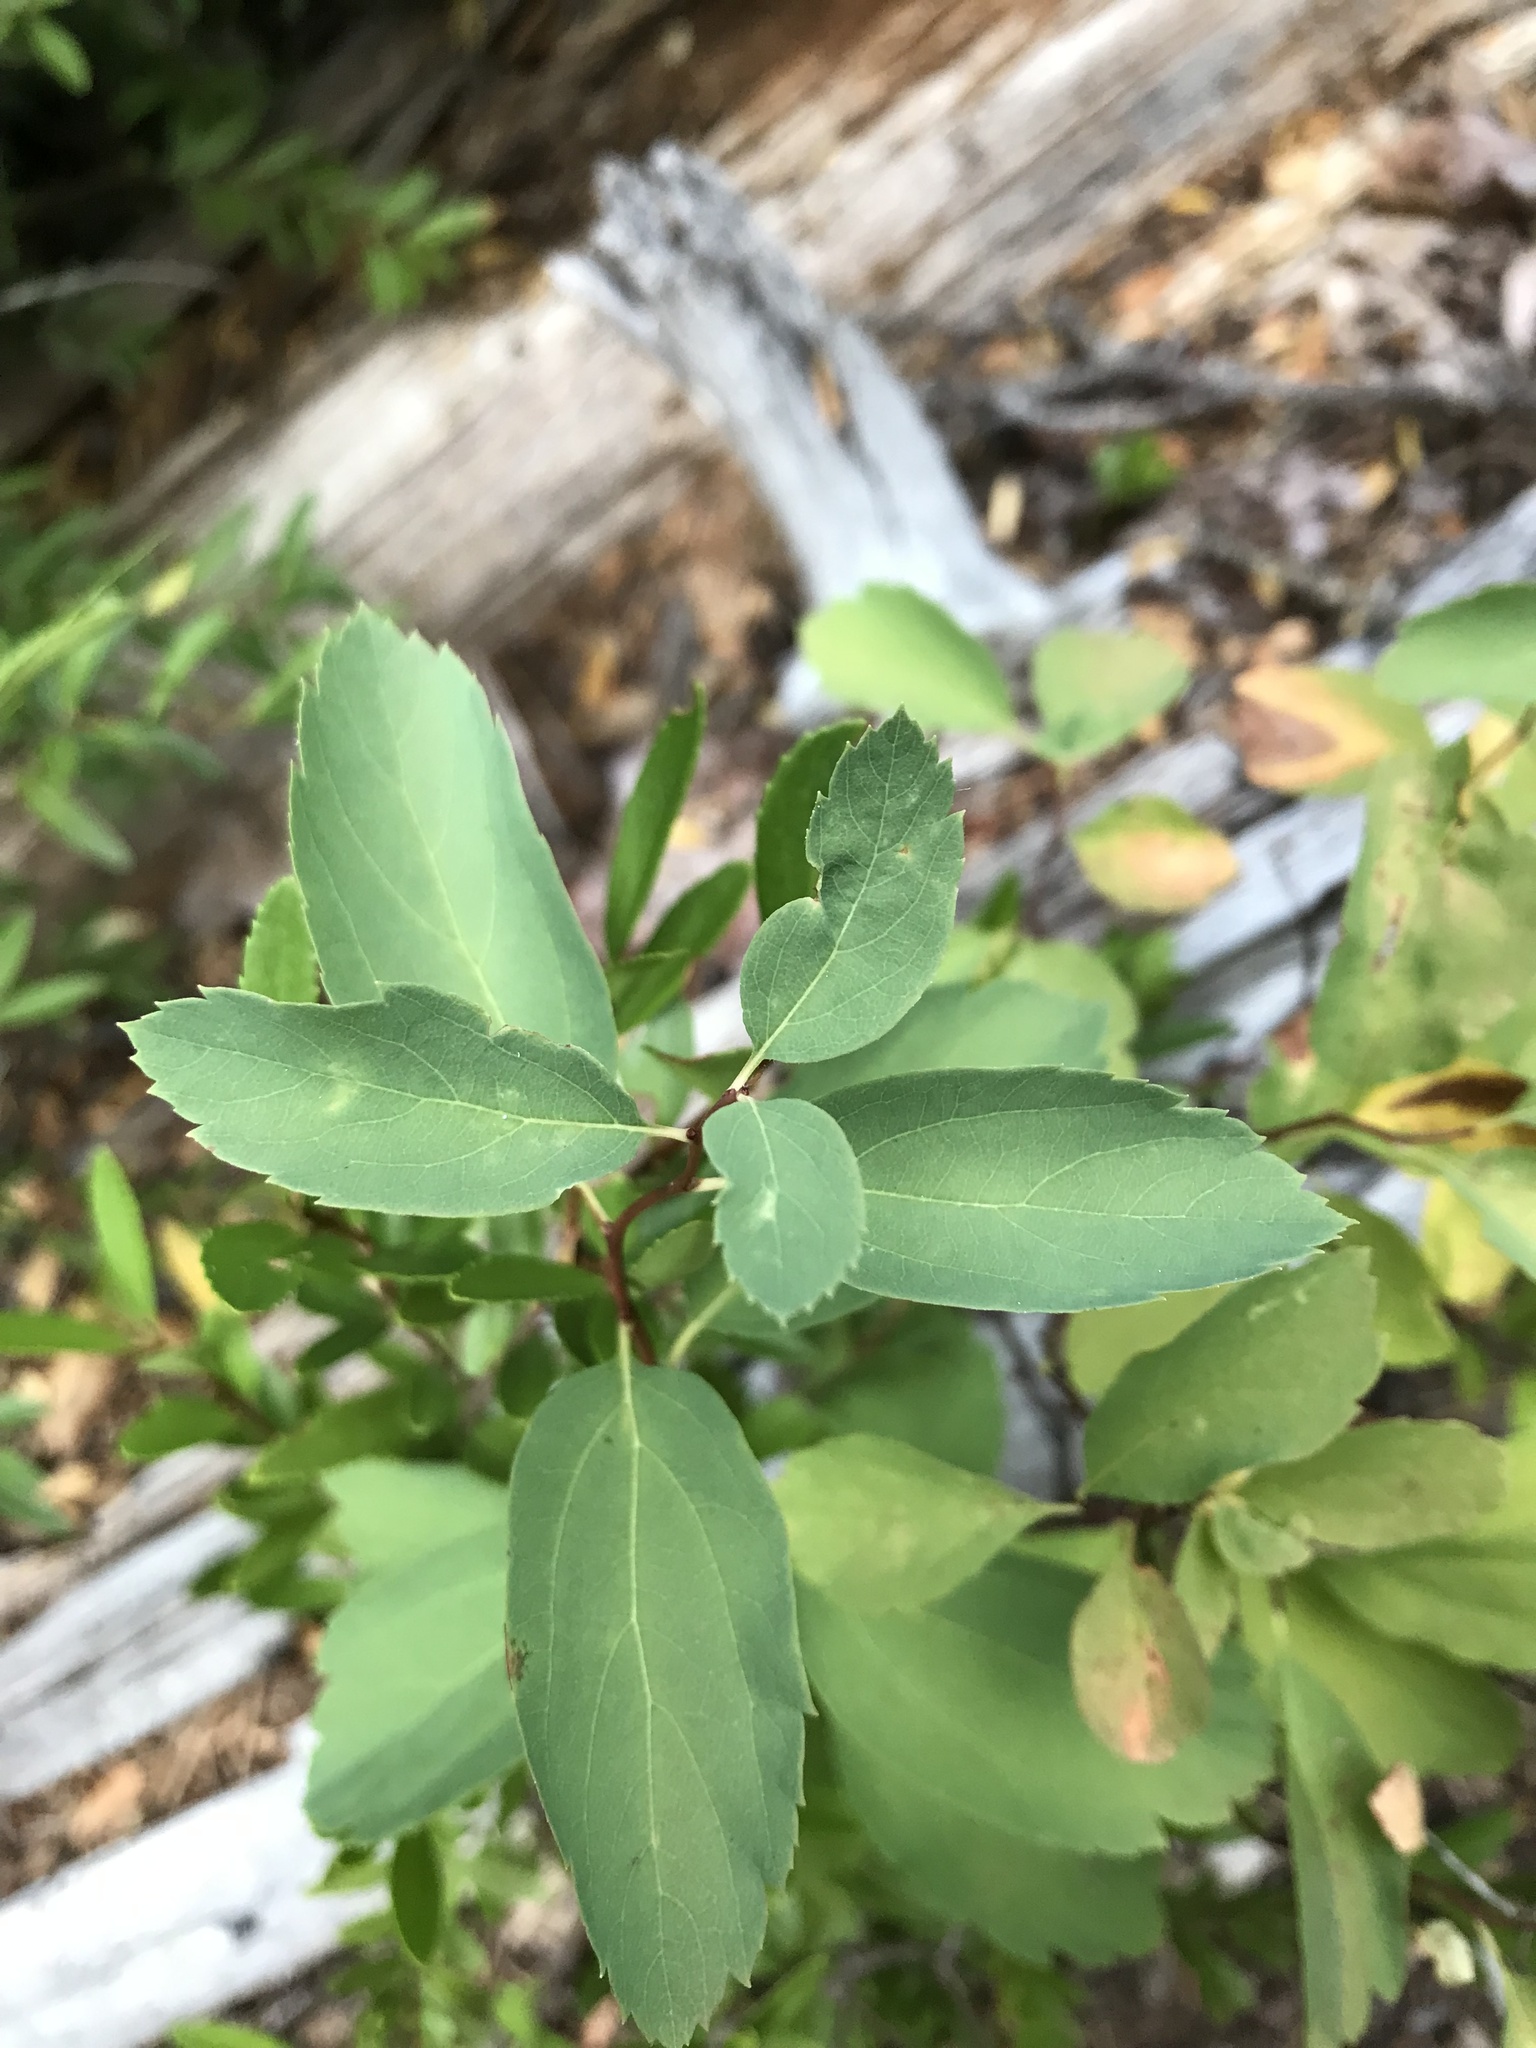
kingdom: Plantae
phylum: Tracheophyta
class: Magnoliopsida
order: Rosales
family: Rosaceae
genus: Spiraea
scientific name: Spiraea lucida
